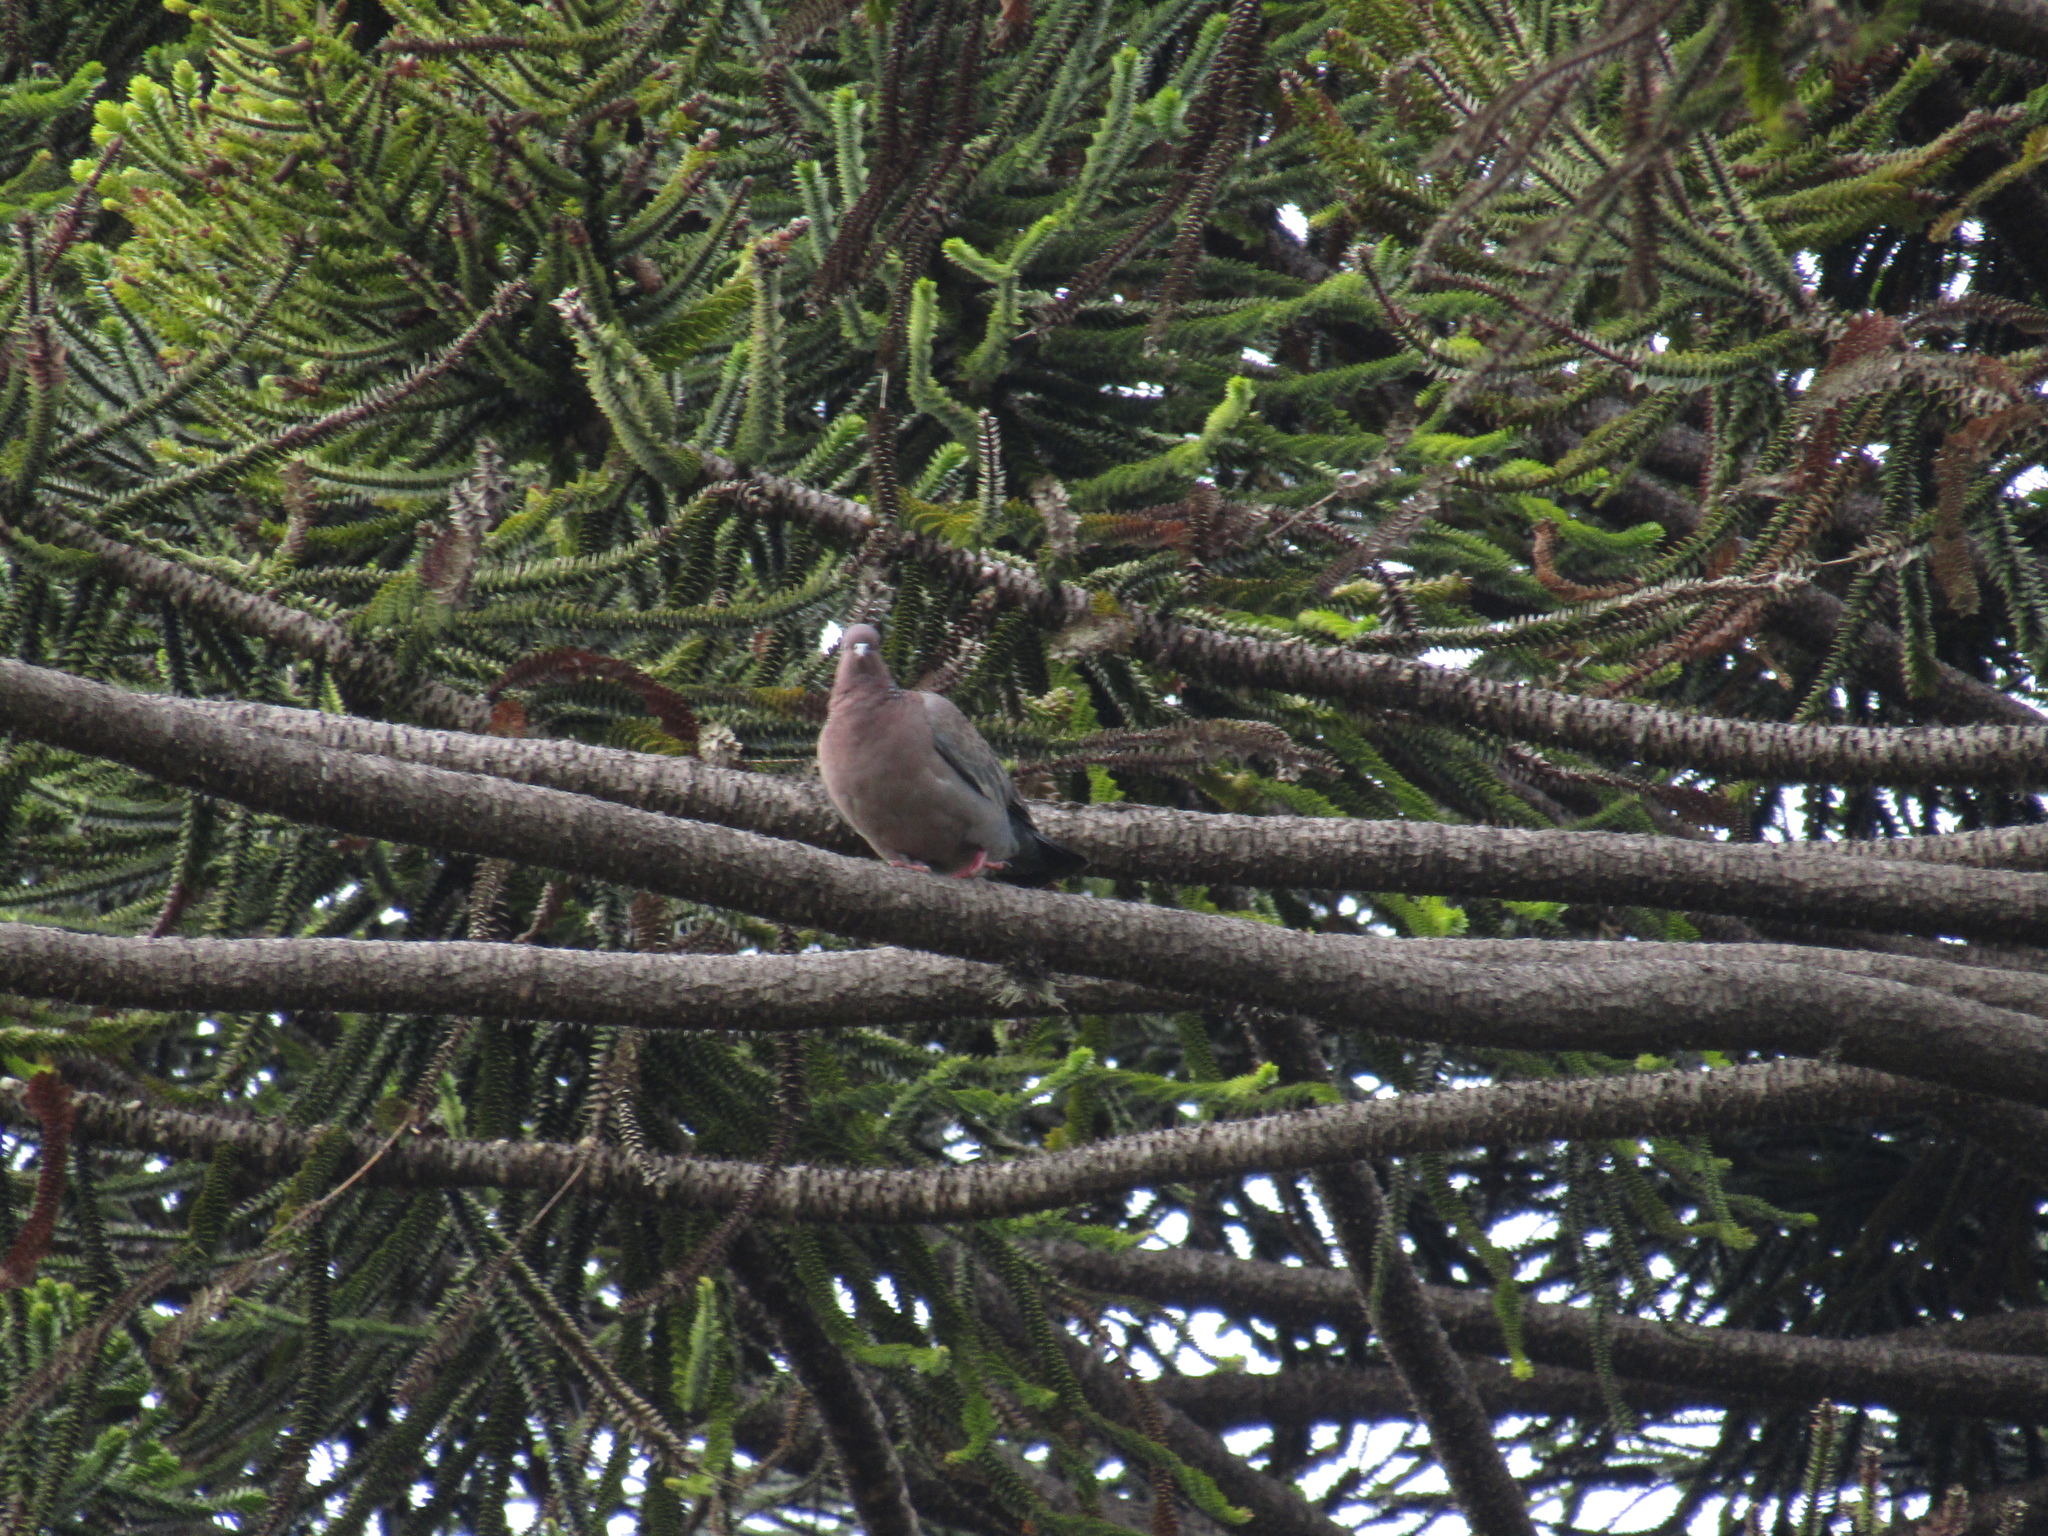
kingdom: Animalia
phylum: Chordata
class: Aves
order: Columbiformes
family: Columbidae
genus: Patagioenas
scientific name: Patagioenas picazuro
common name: Picazuro pigeon
